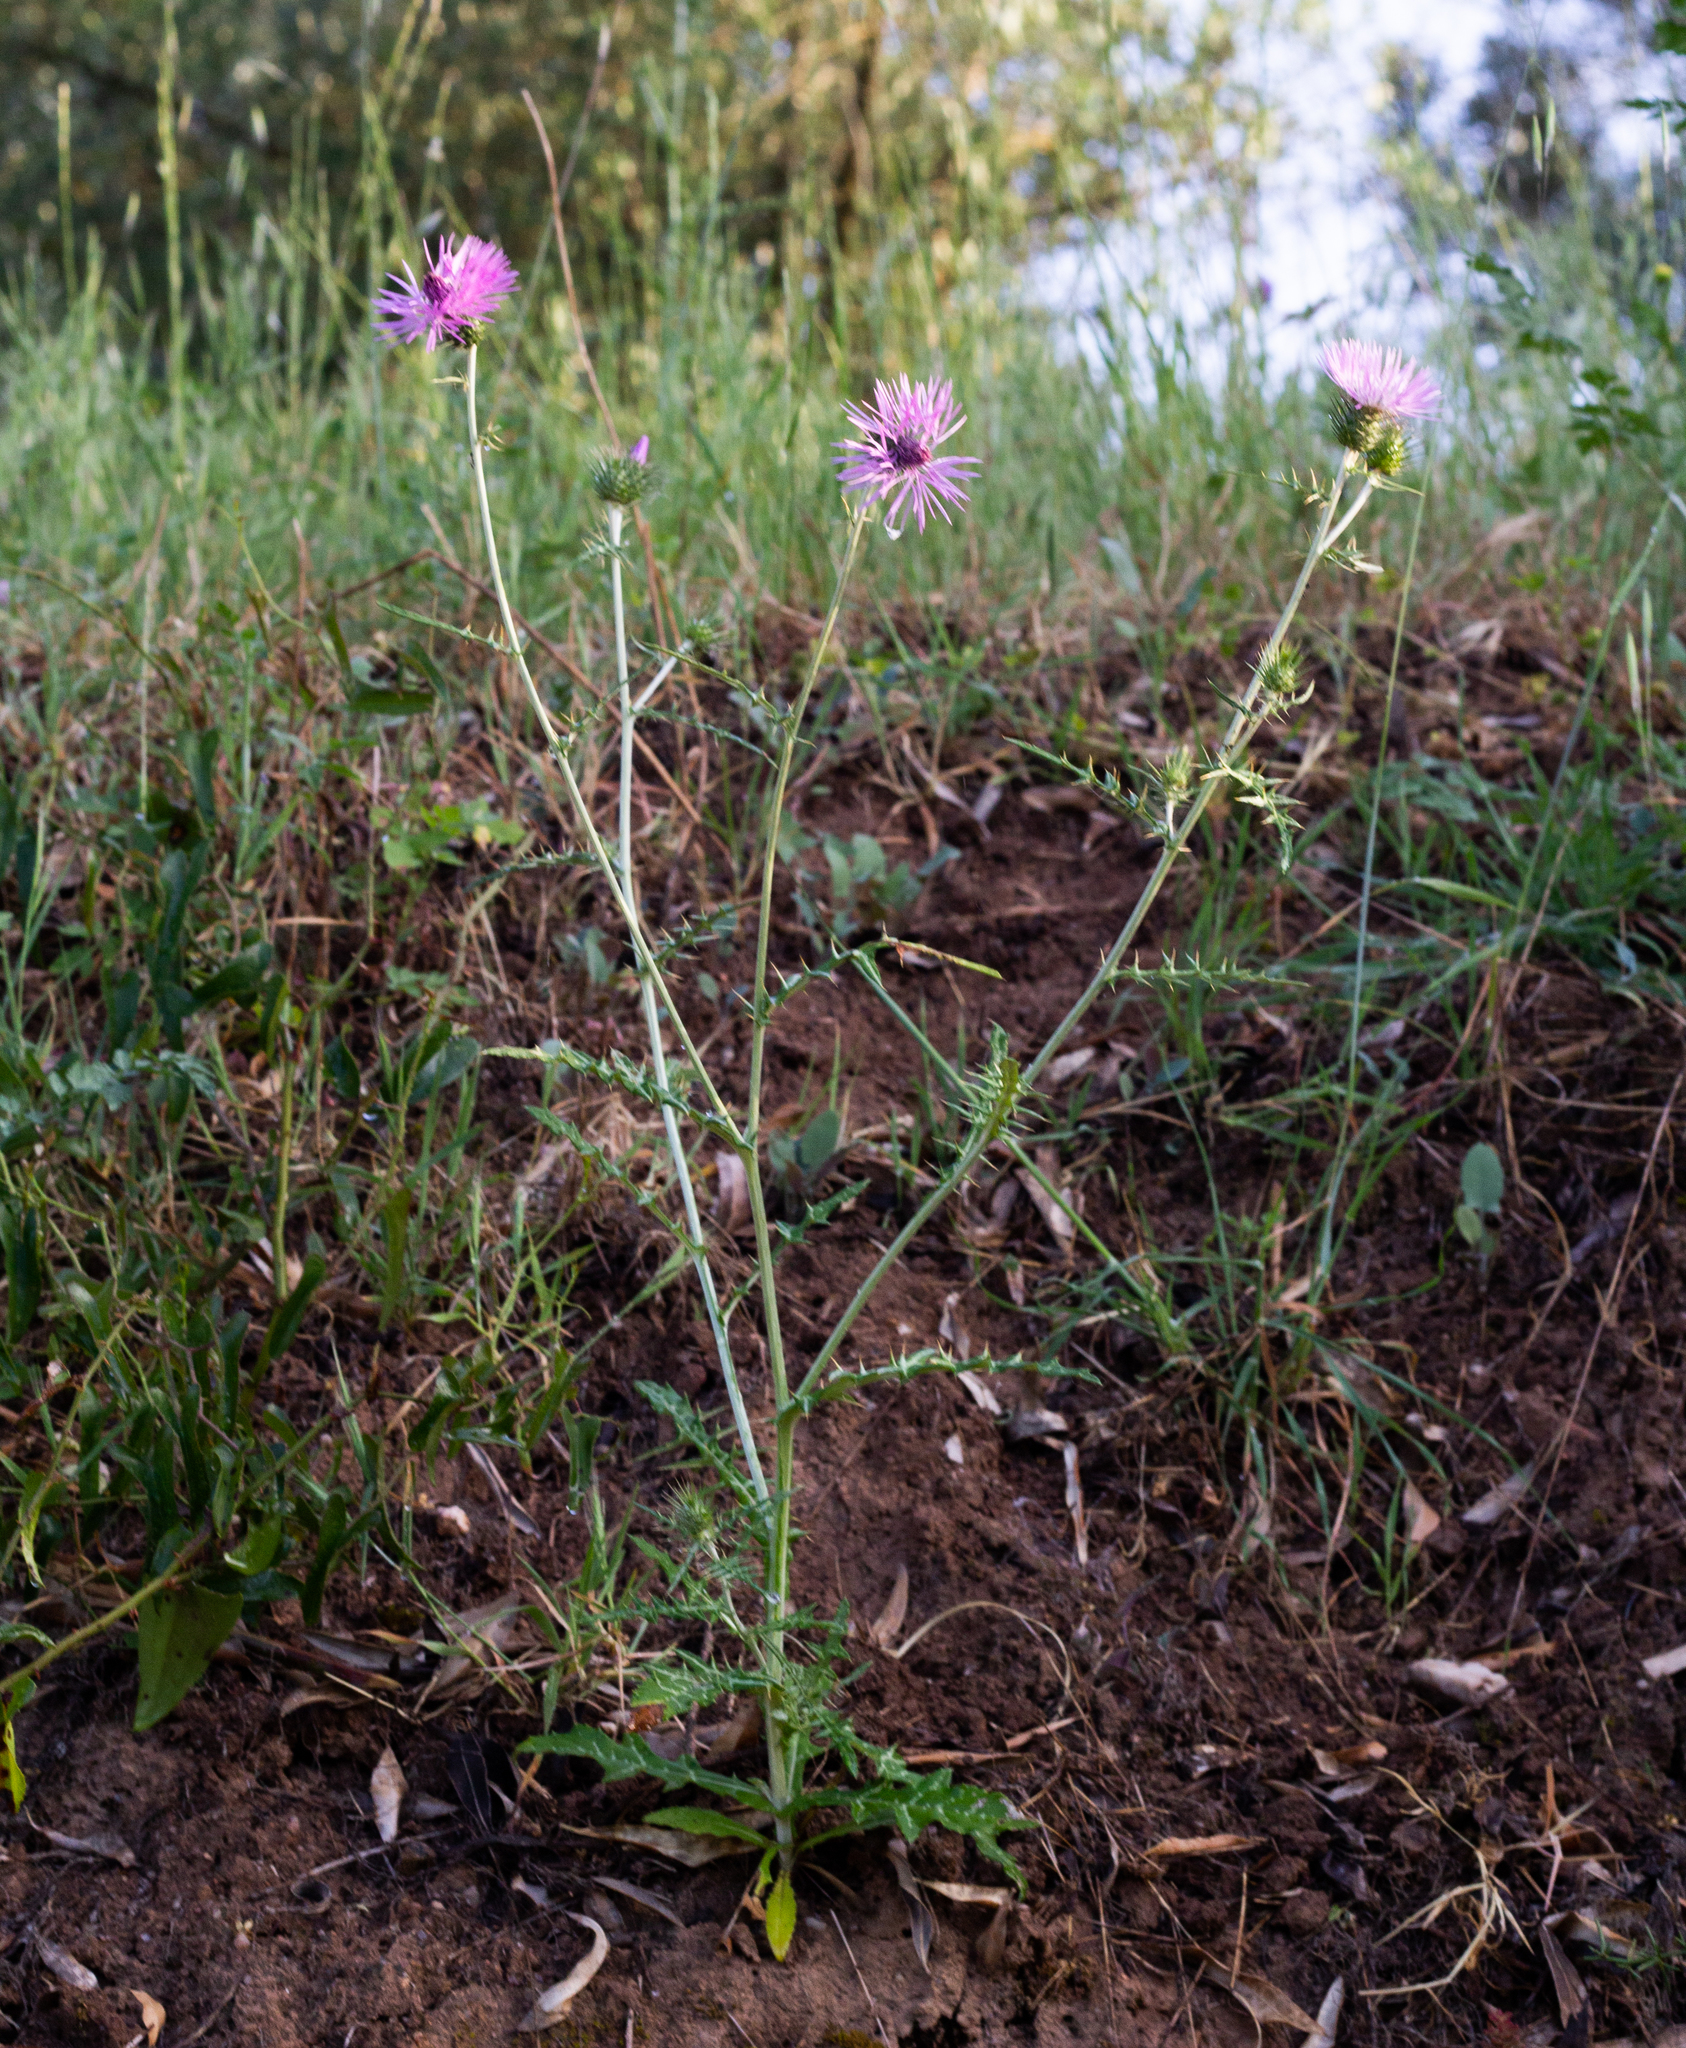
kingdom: Plantae
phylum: Tracheophyta
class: Magnoliopsida
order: Asterales
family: Asteraceae
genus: Galactites
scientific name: Galactites tomentosa
